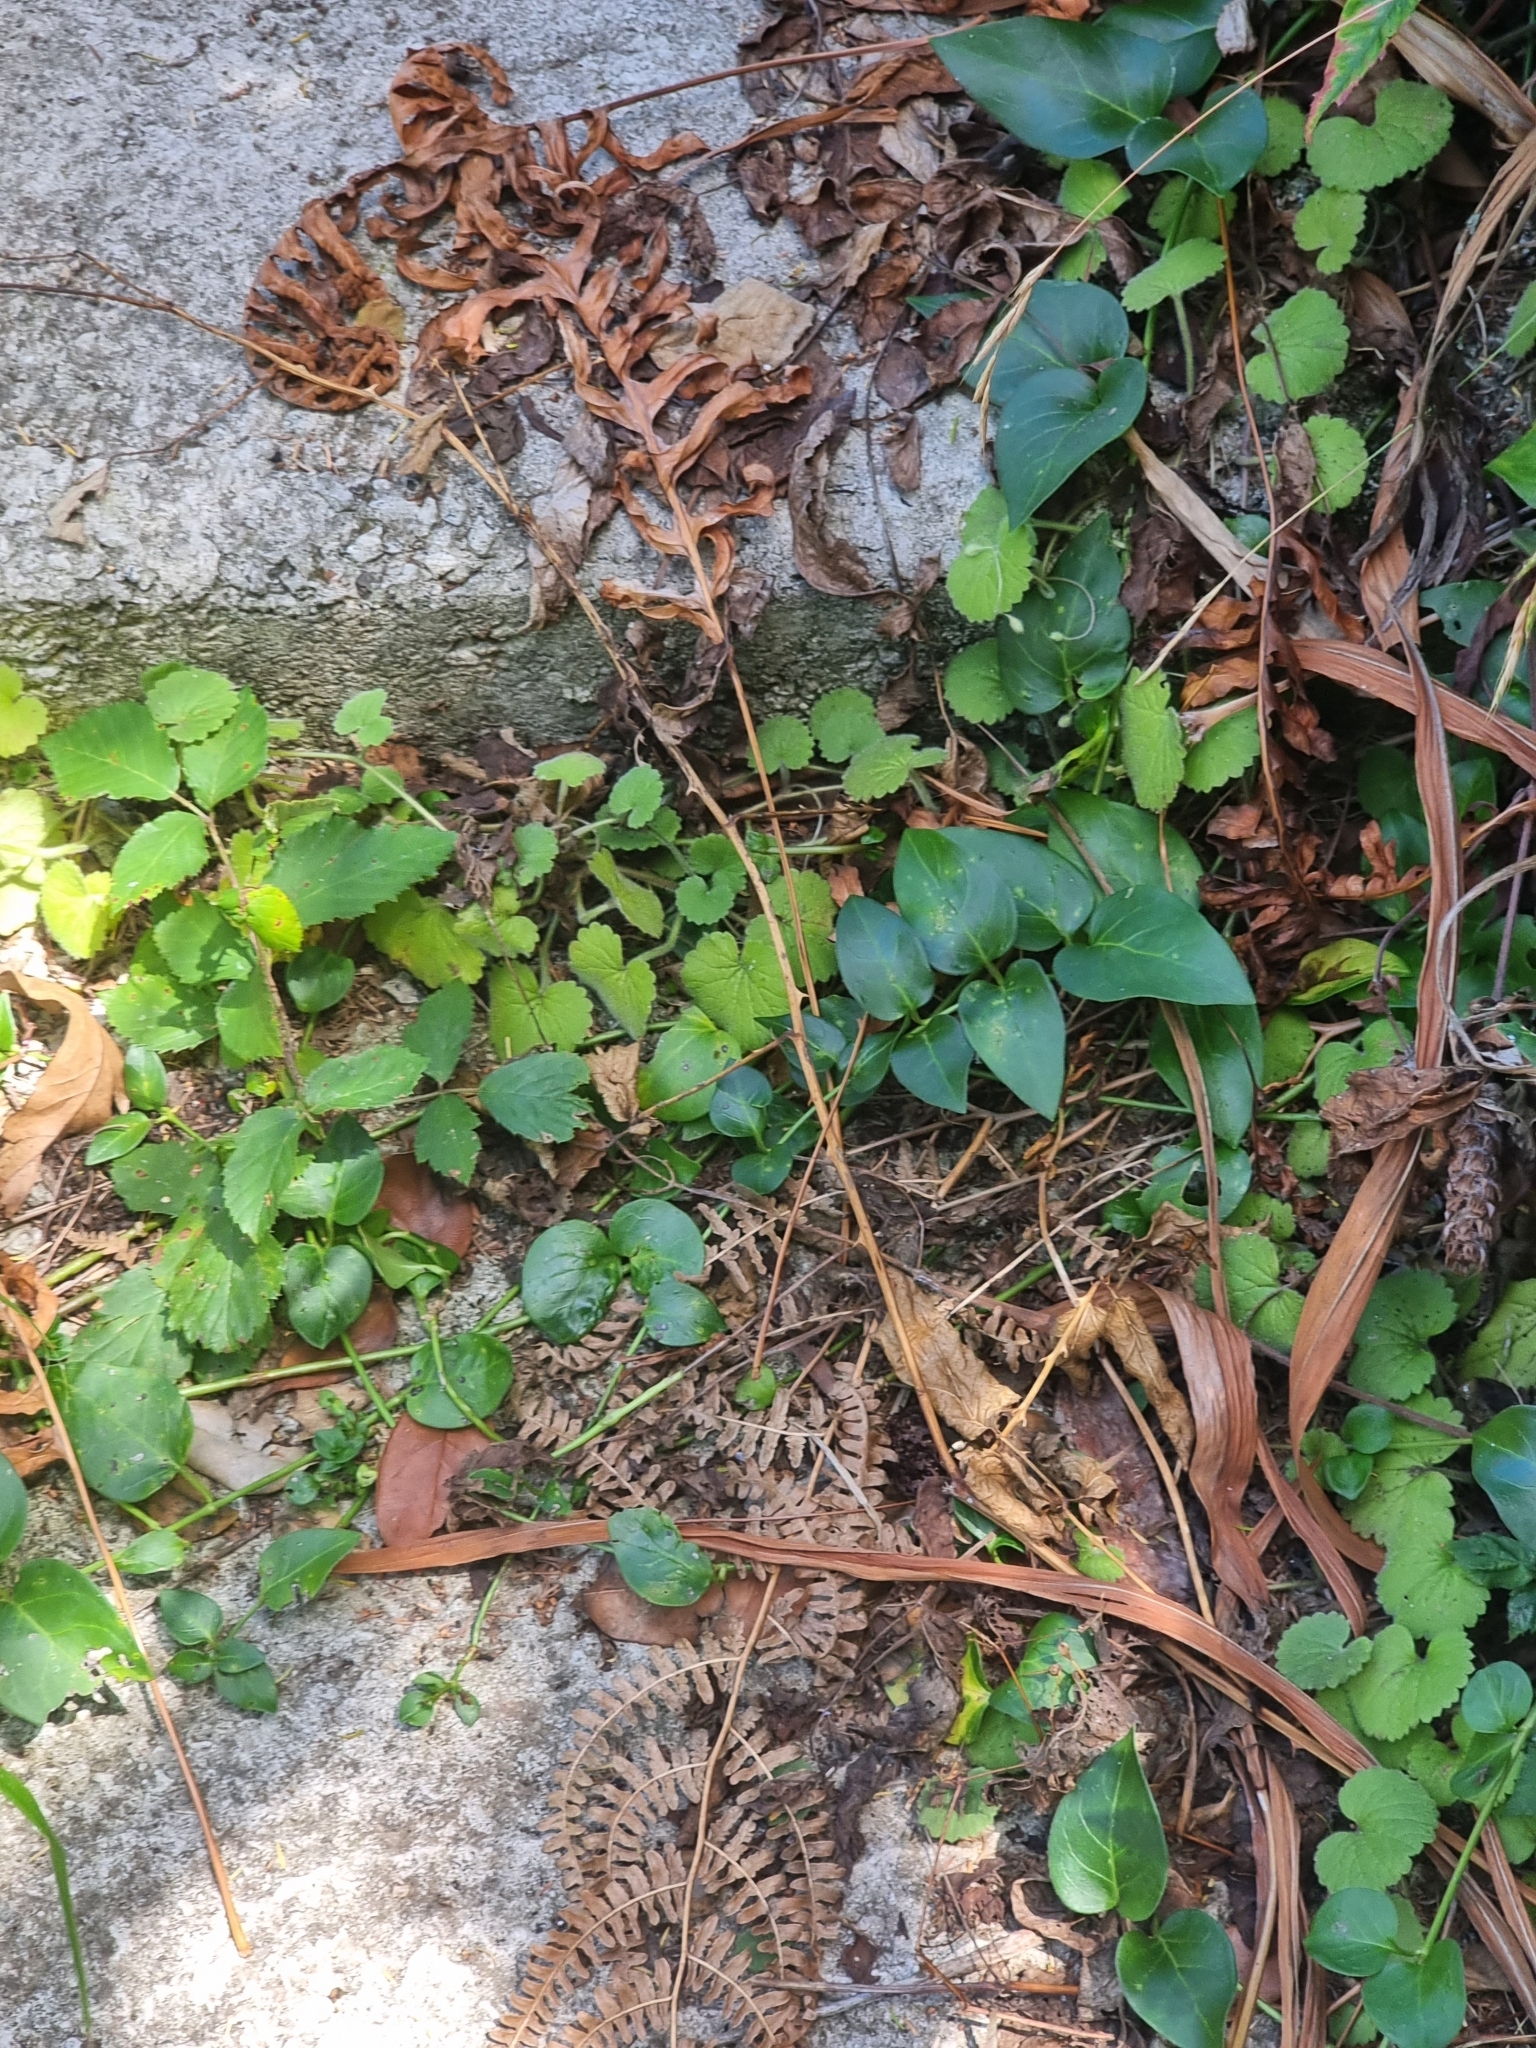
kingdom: Plantae
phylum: Tracheophyta
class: Magnoliopsida
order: Gentianales
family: Apocynaceae
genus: Vinca
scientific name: Vinca major
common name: Greater periwinkle
